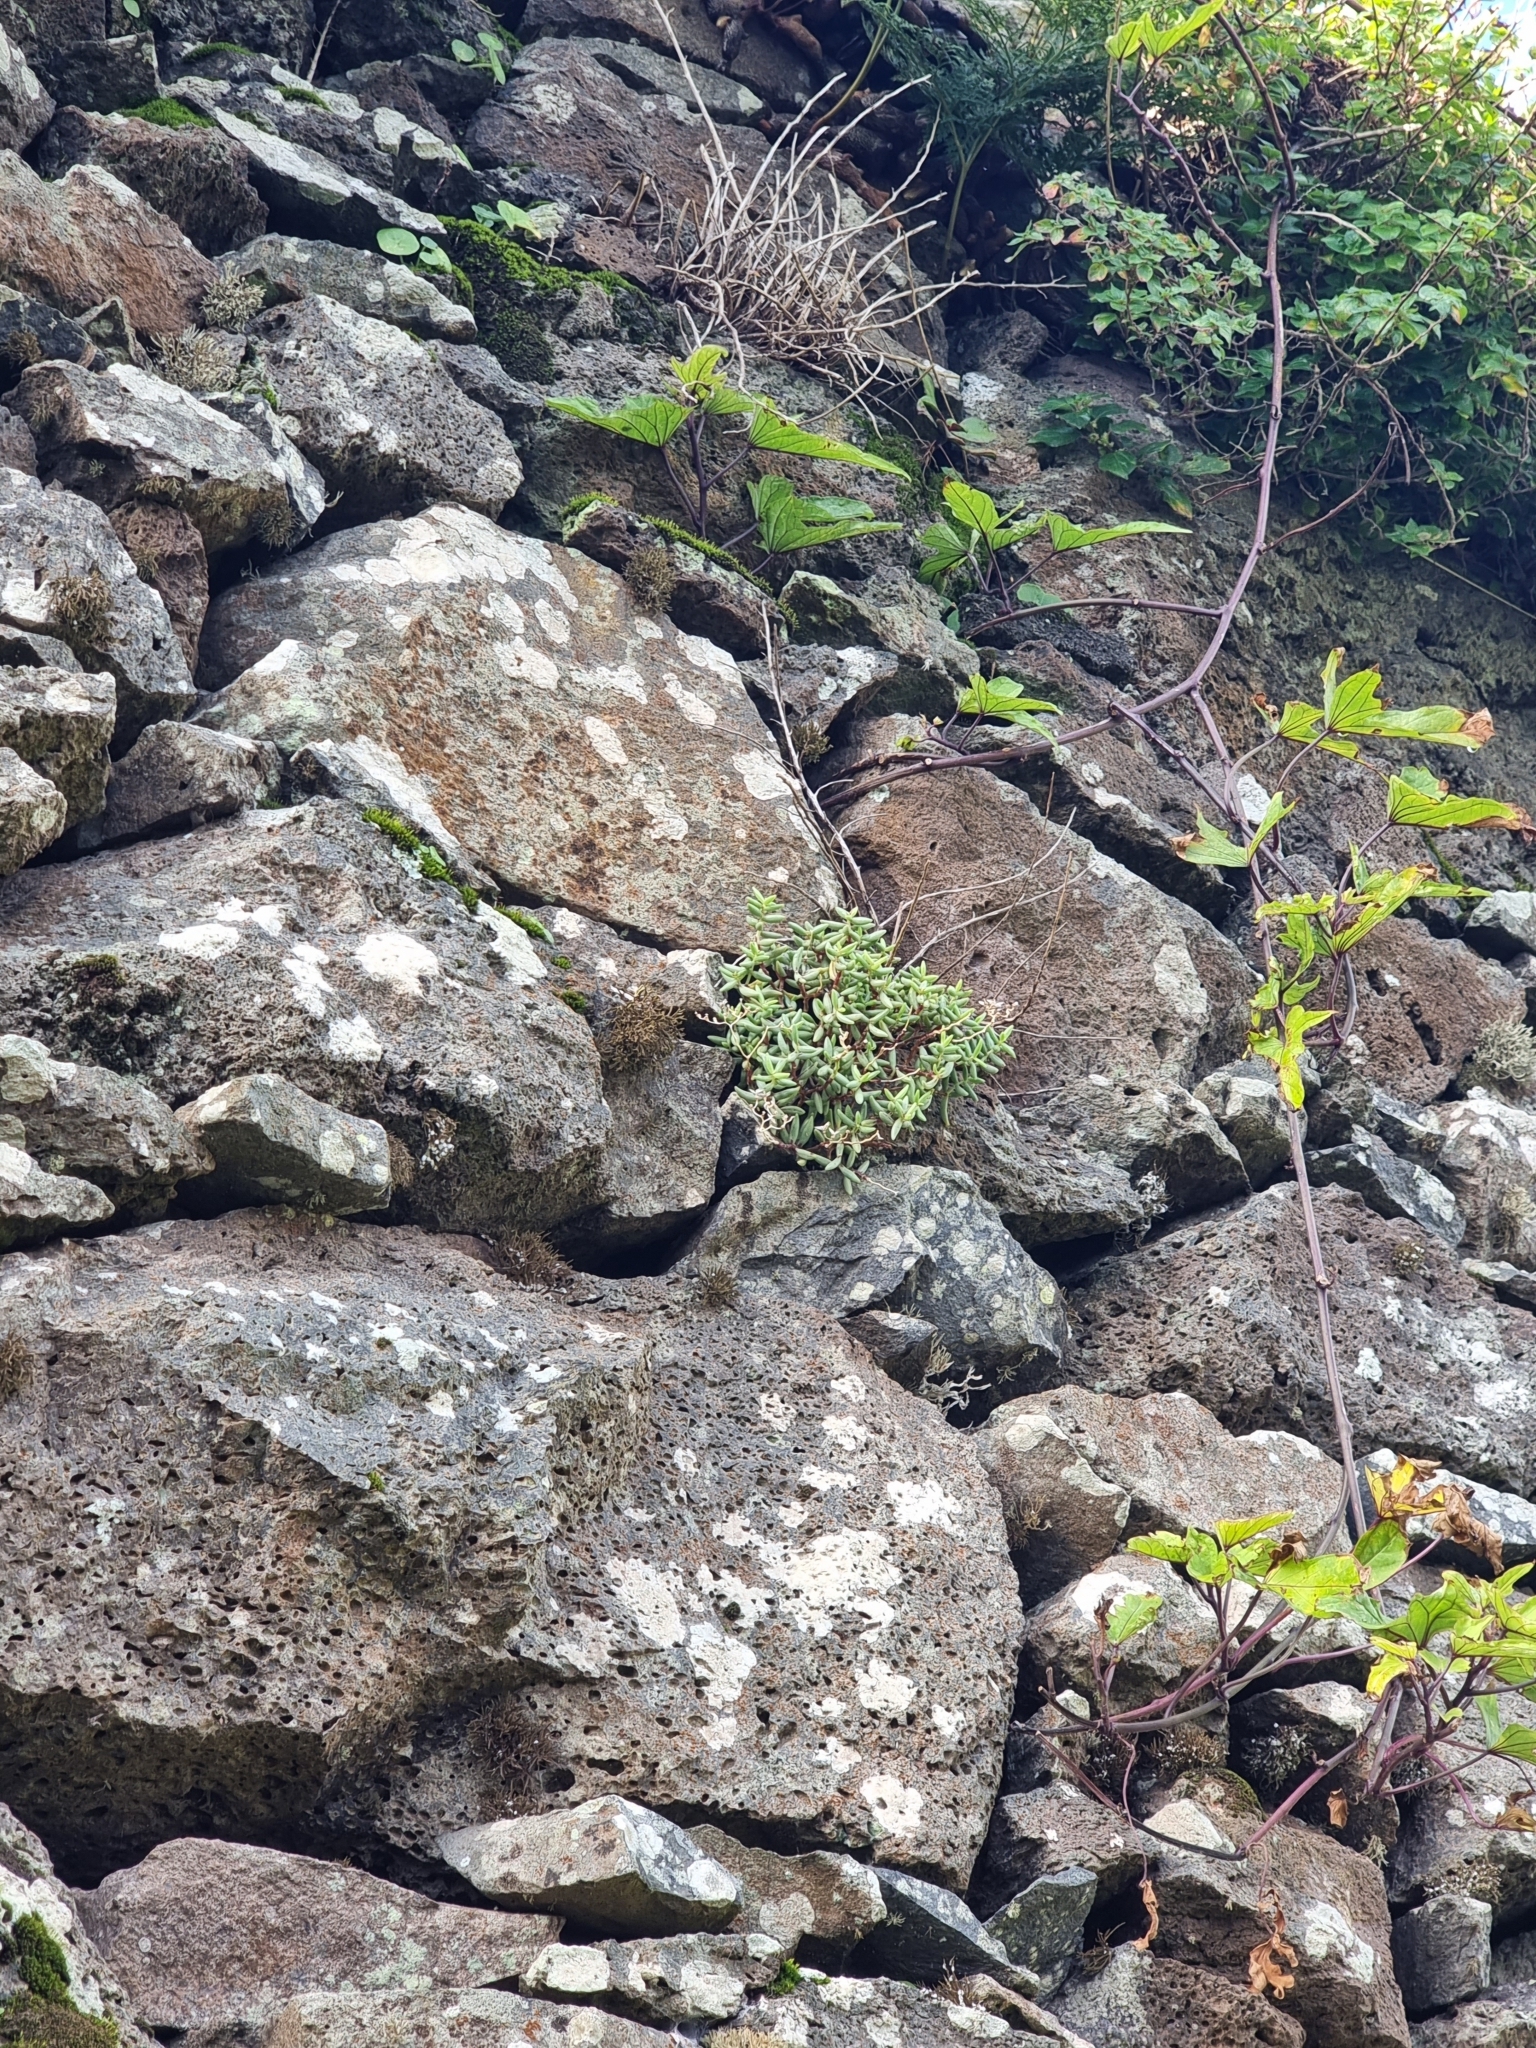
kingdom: Plantae
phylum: Tracheophyta
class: Magnoliopsida
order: Saxifragales
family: Crassulaceae
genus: Sedum
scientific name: Sedum fusiforme
